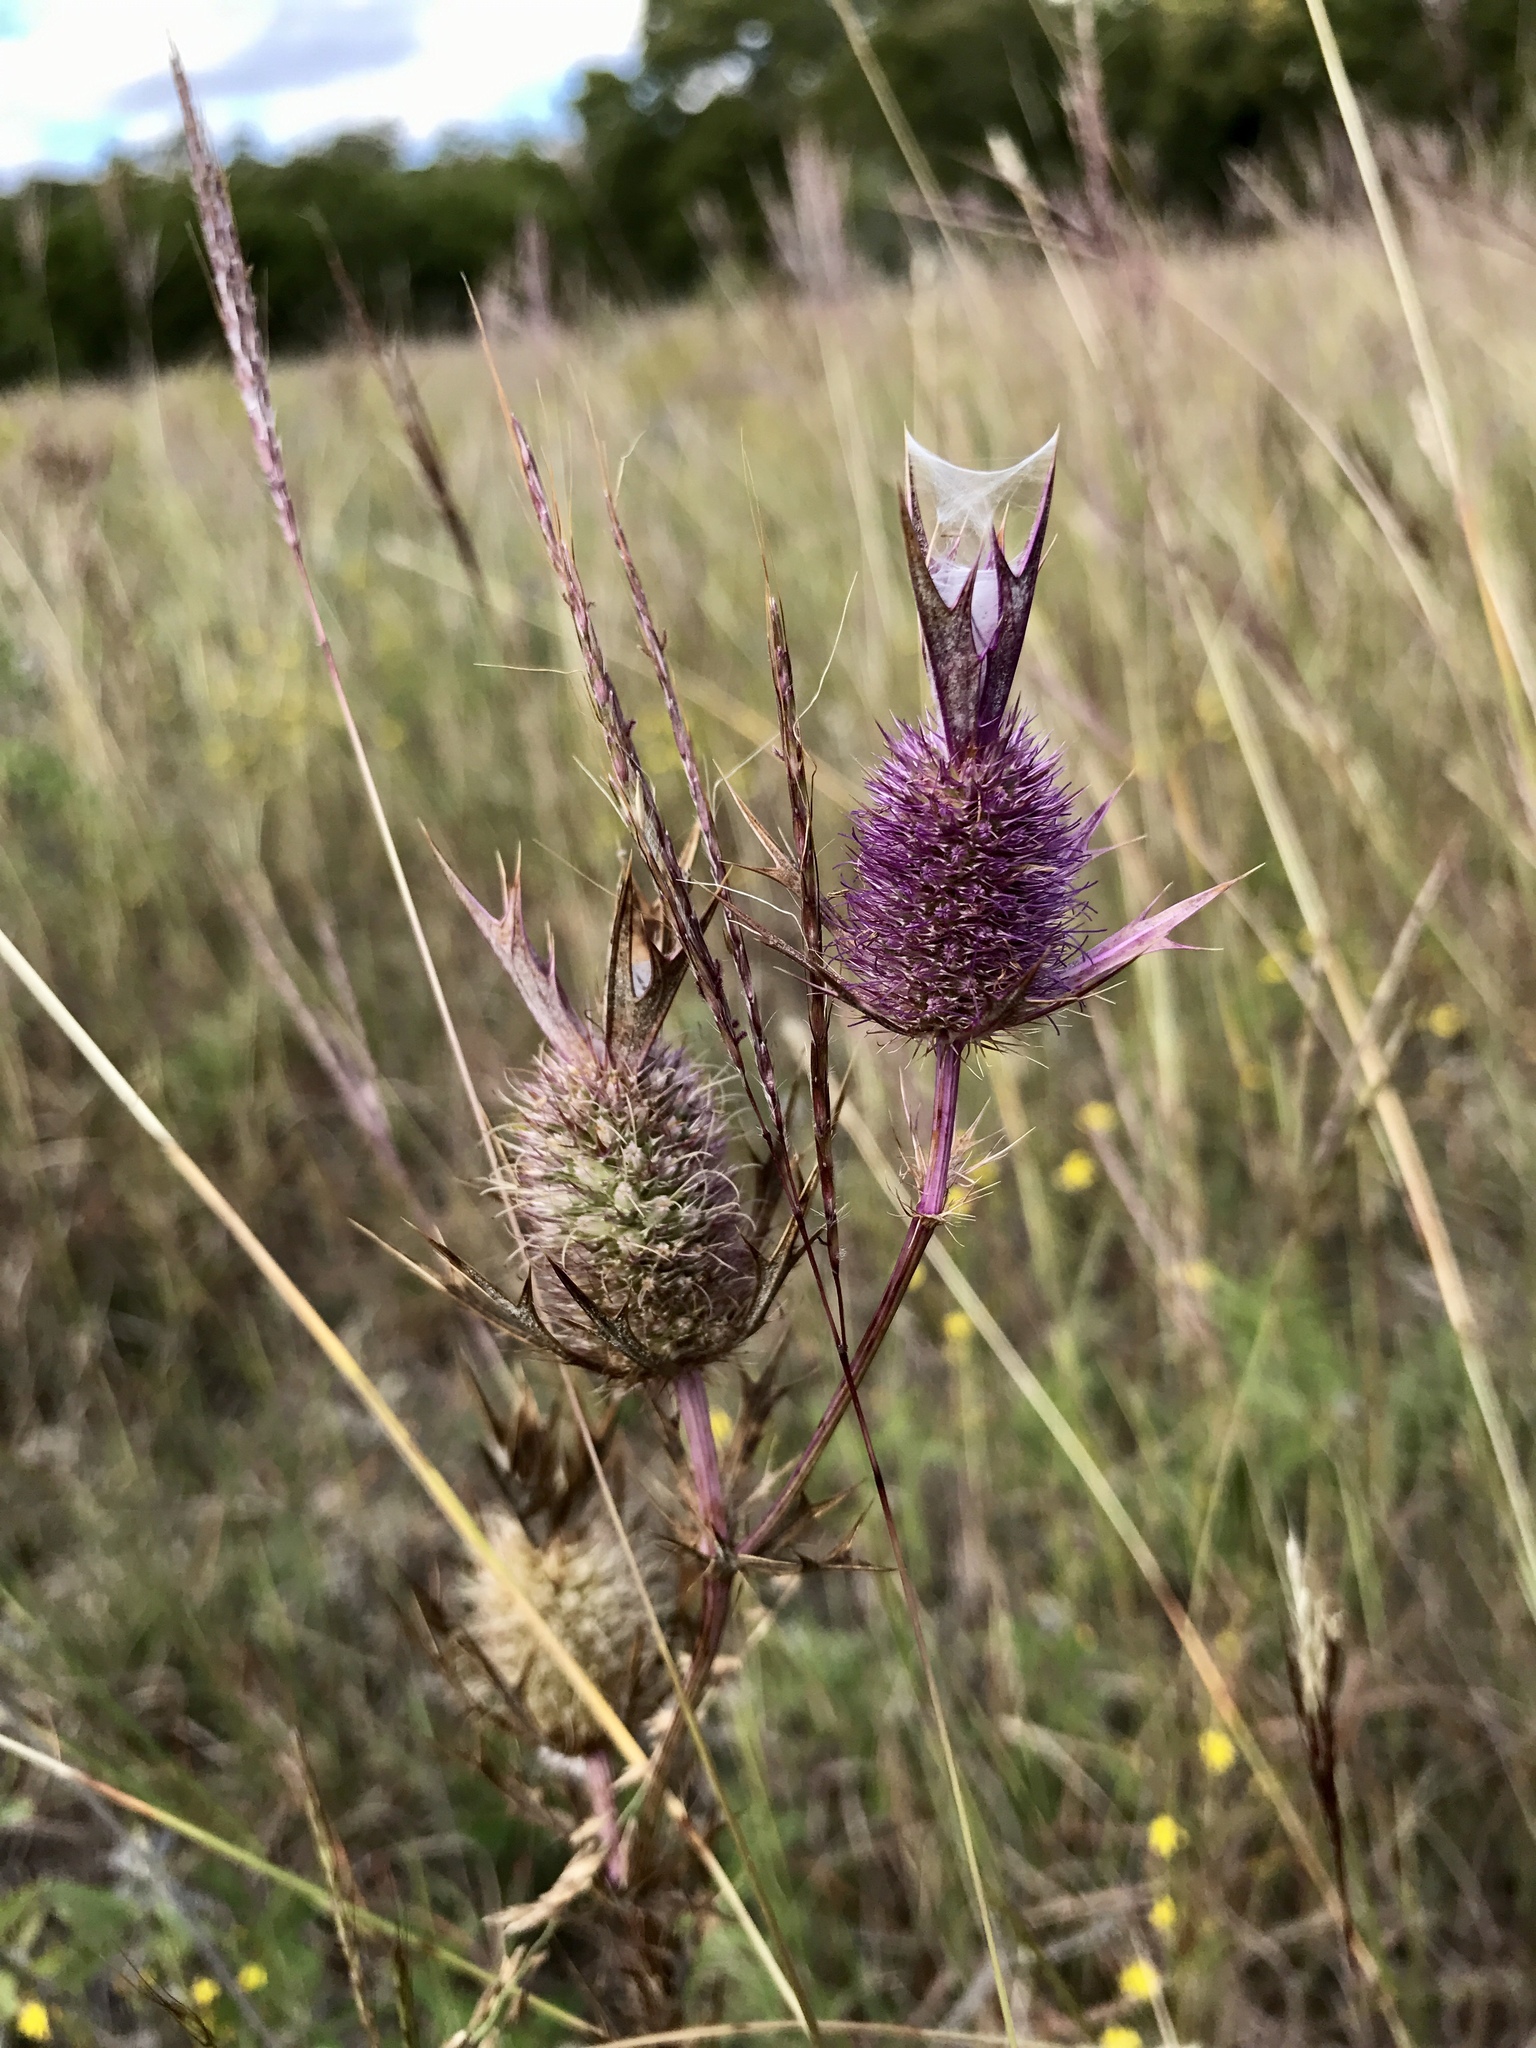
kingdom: Plantae
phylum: Tracheophyta
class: Magnoliopsida
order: Apiales
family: Apiaceae
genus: Eryngium
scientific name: Eryngium leavenworthii
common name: Leavenworth's eryngo
